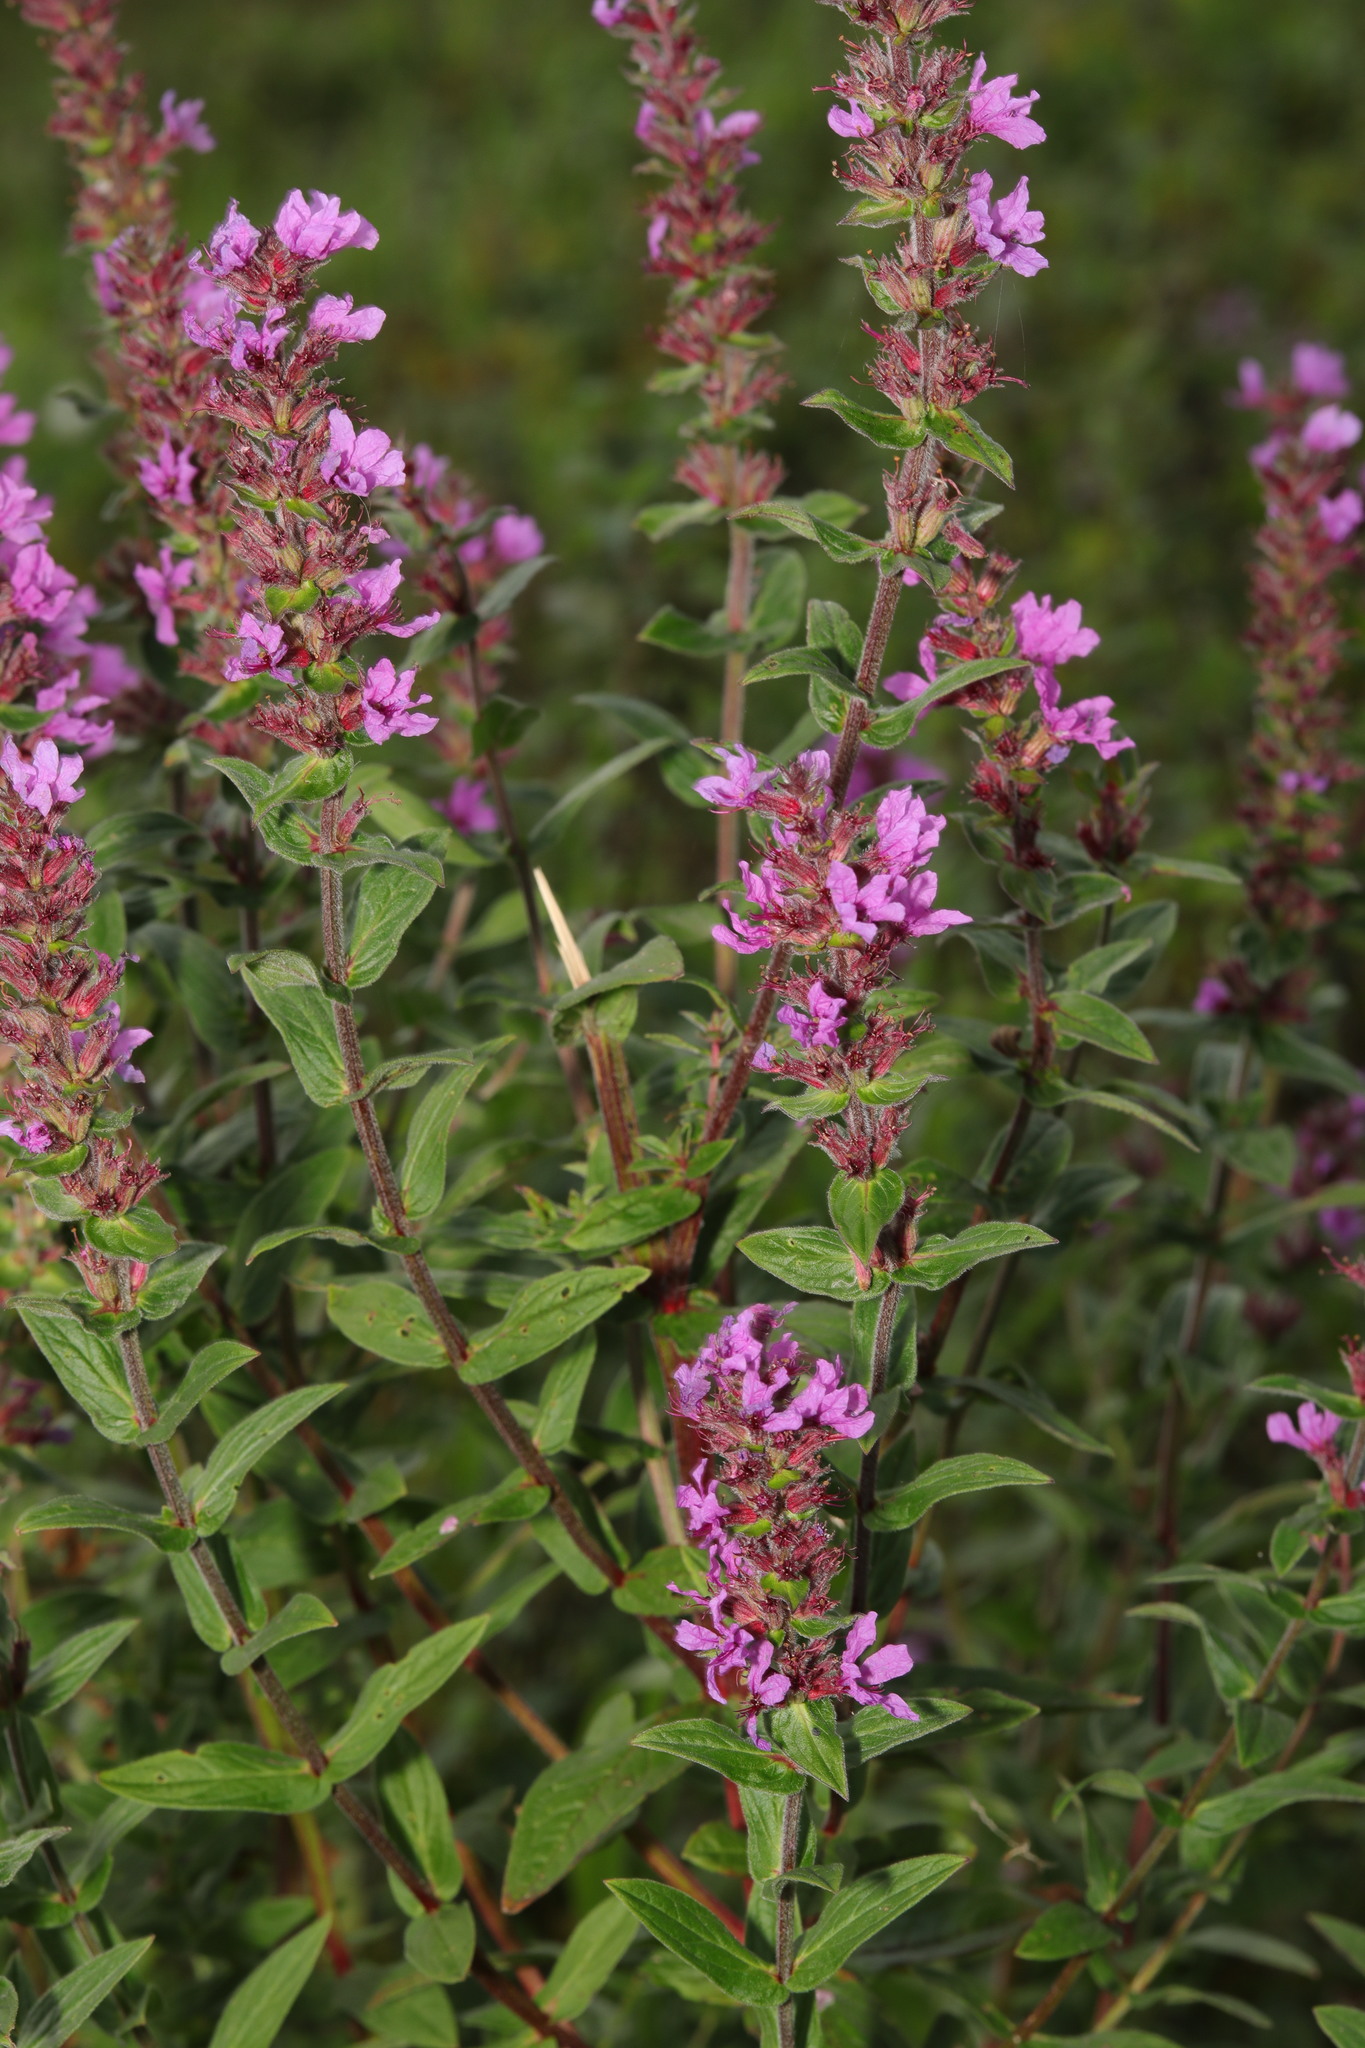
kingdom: Plantae
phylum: Tracheophyta
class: Magnoliopsida
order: Myrtales
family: Lythraceae
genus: Lythrum
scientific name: Lythrum salicaria
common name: Purple loosestrife
